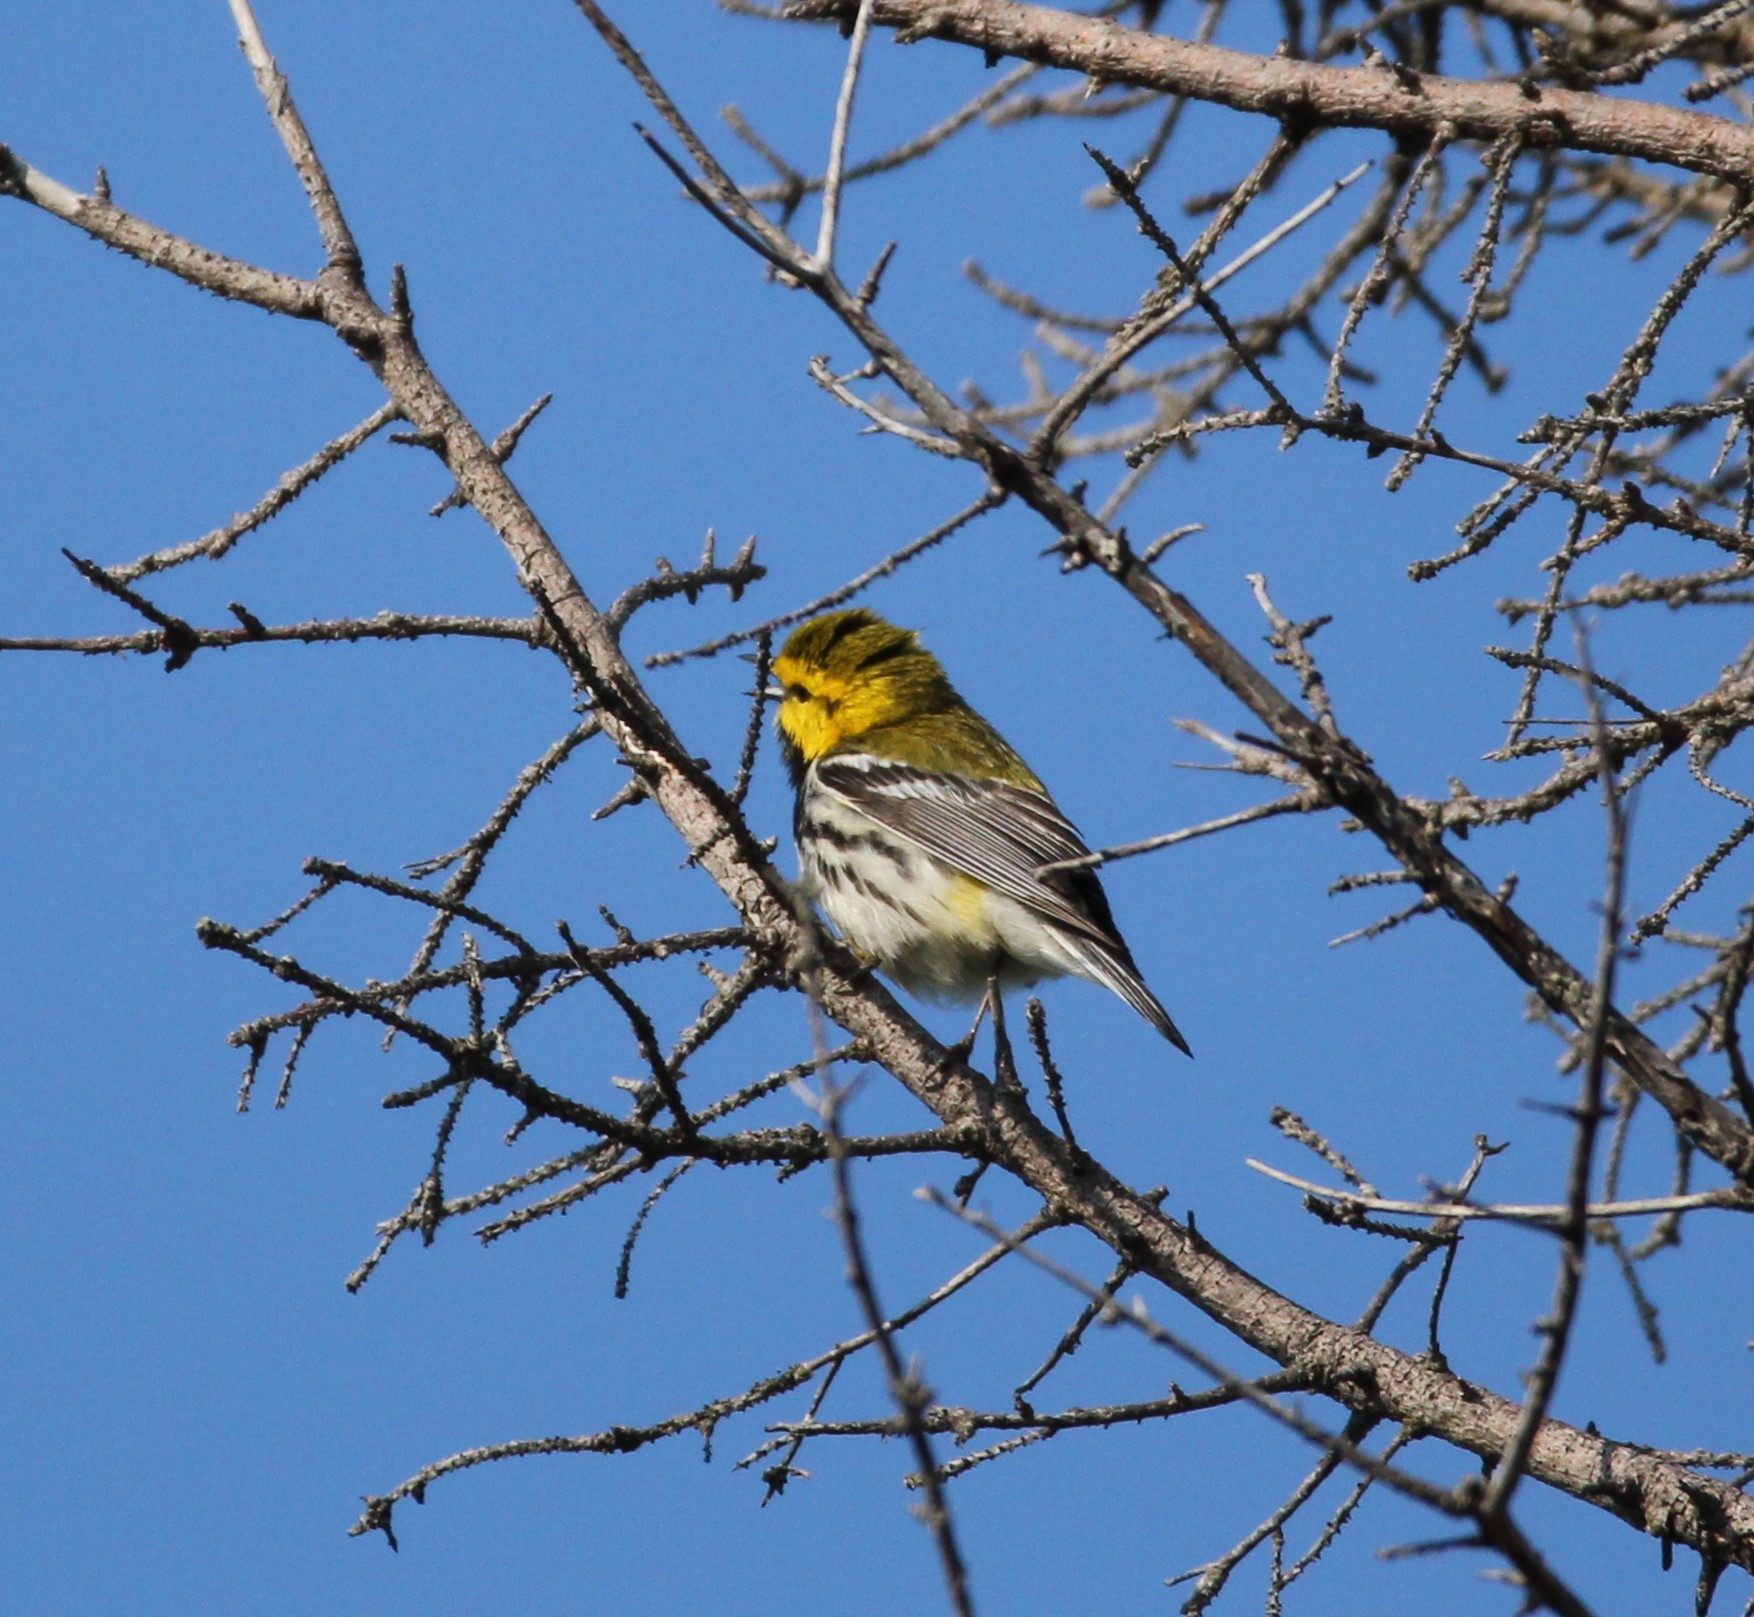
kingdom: Animalia
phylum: Chordata
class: Aves
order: Passeriformes
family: Parulidae
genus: Setophaga
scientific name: Setophaga virens
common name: Black-throated green warbler
